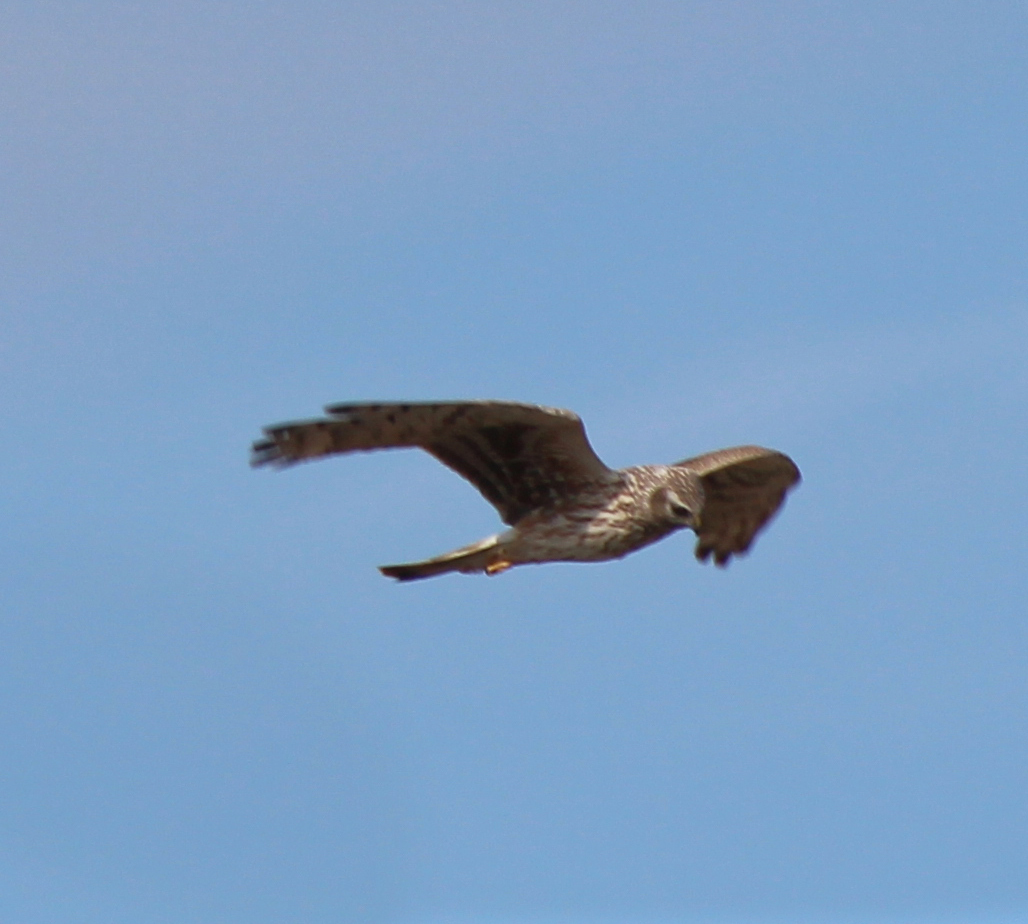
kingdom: Animalia
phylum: Chordata
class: Aves
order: Accipitriformes
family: Accipitridae
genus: Circus
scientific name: Circus cyaneus
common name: Hen harrier
